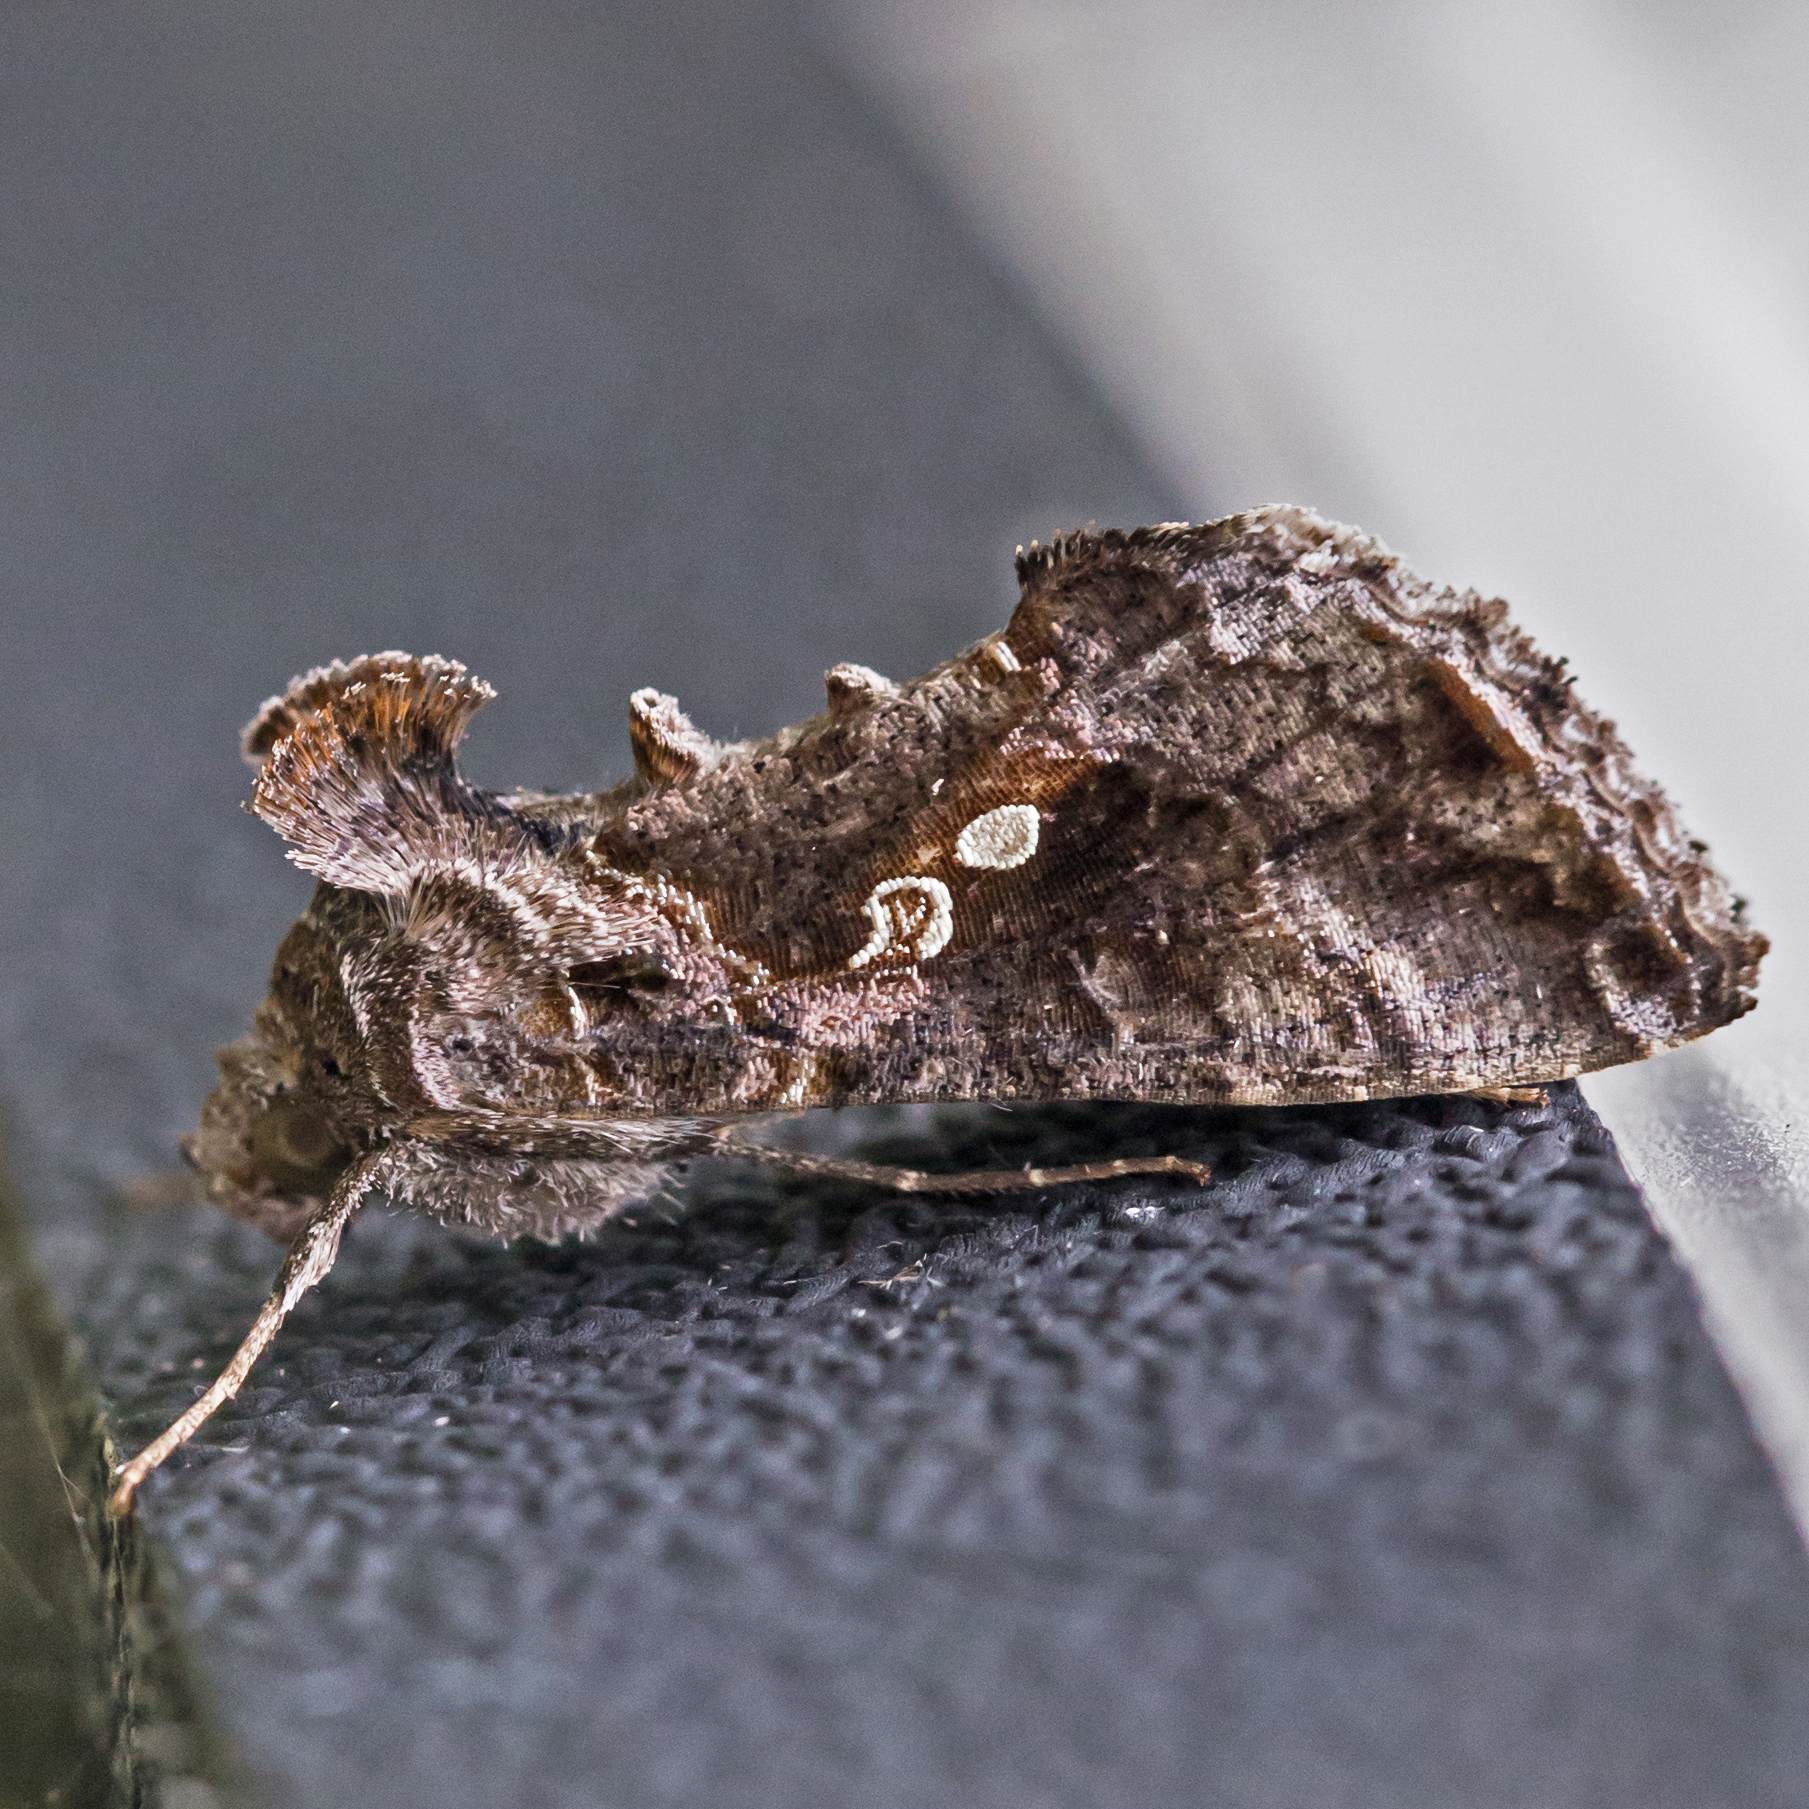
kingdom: Animalia
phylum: Arthropoda
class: Insecta
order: Lepidoptera
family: Noctuidae
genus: Chrysodeixis
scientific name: Chrysodeixis includens
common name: Cutworm moth
